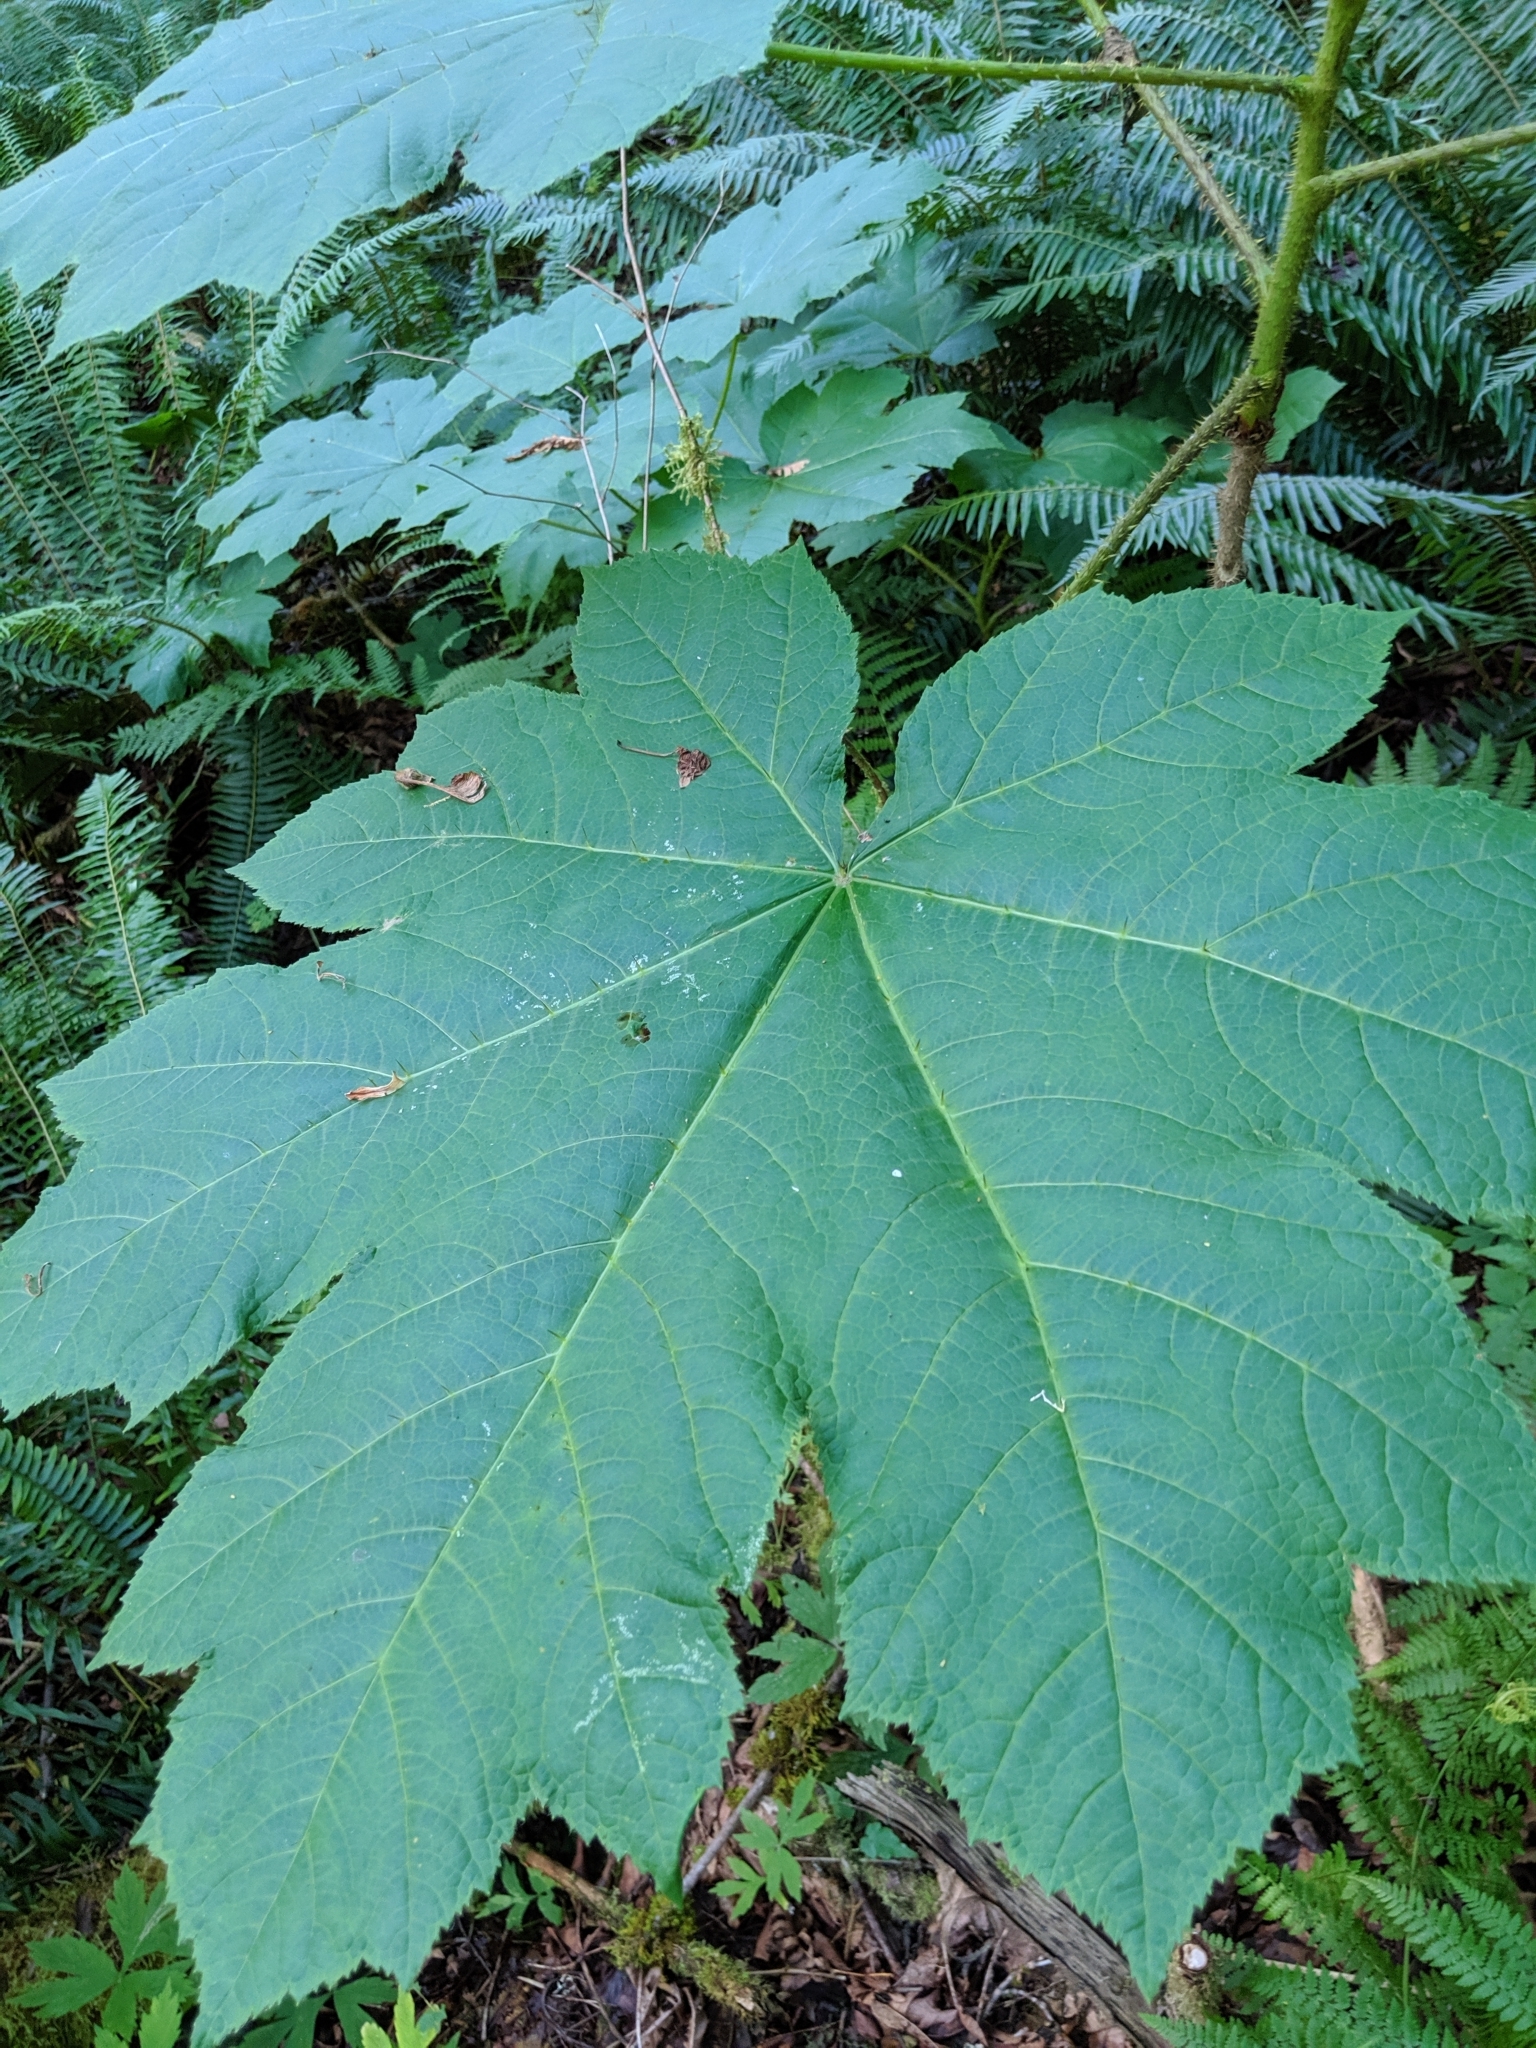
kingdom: Plantae
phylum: Tracheophyta
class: Magnoliopsida
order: Apiales
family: Araliaceae
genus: Oplopanax
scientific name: Oplopanax horridus
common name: Devil's walking-stick
